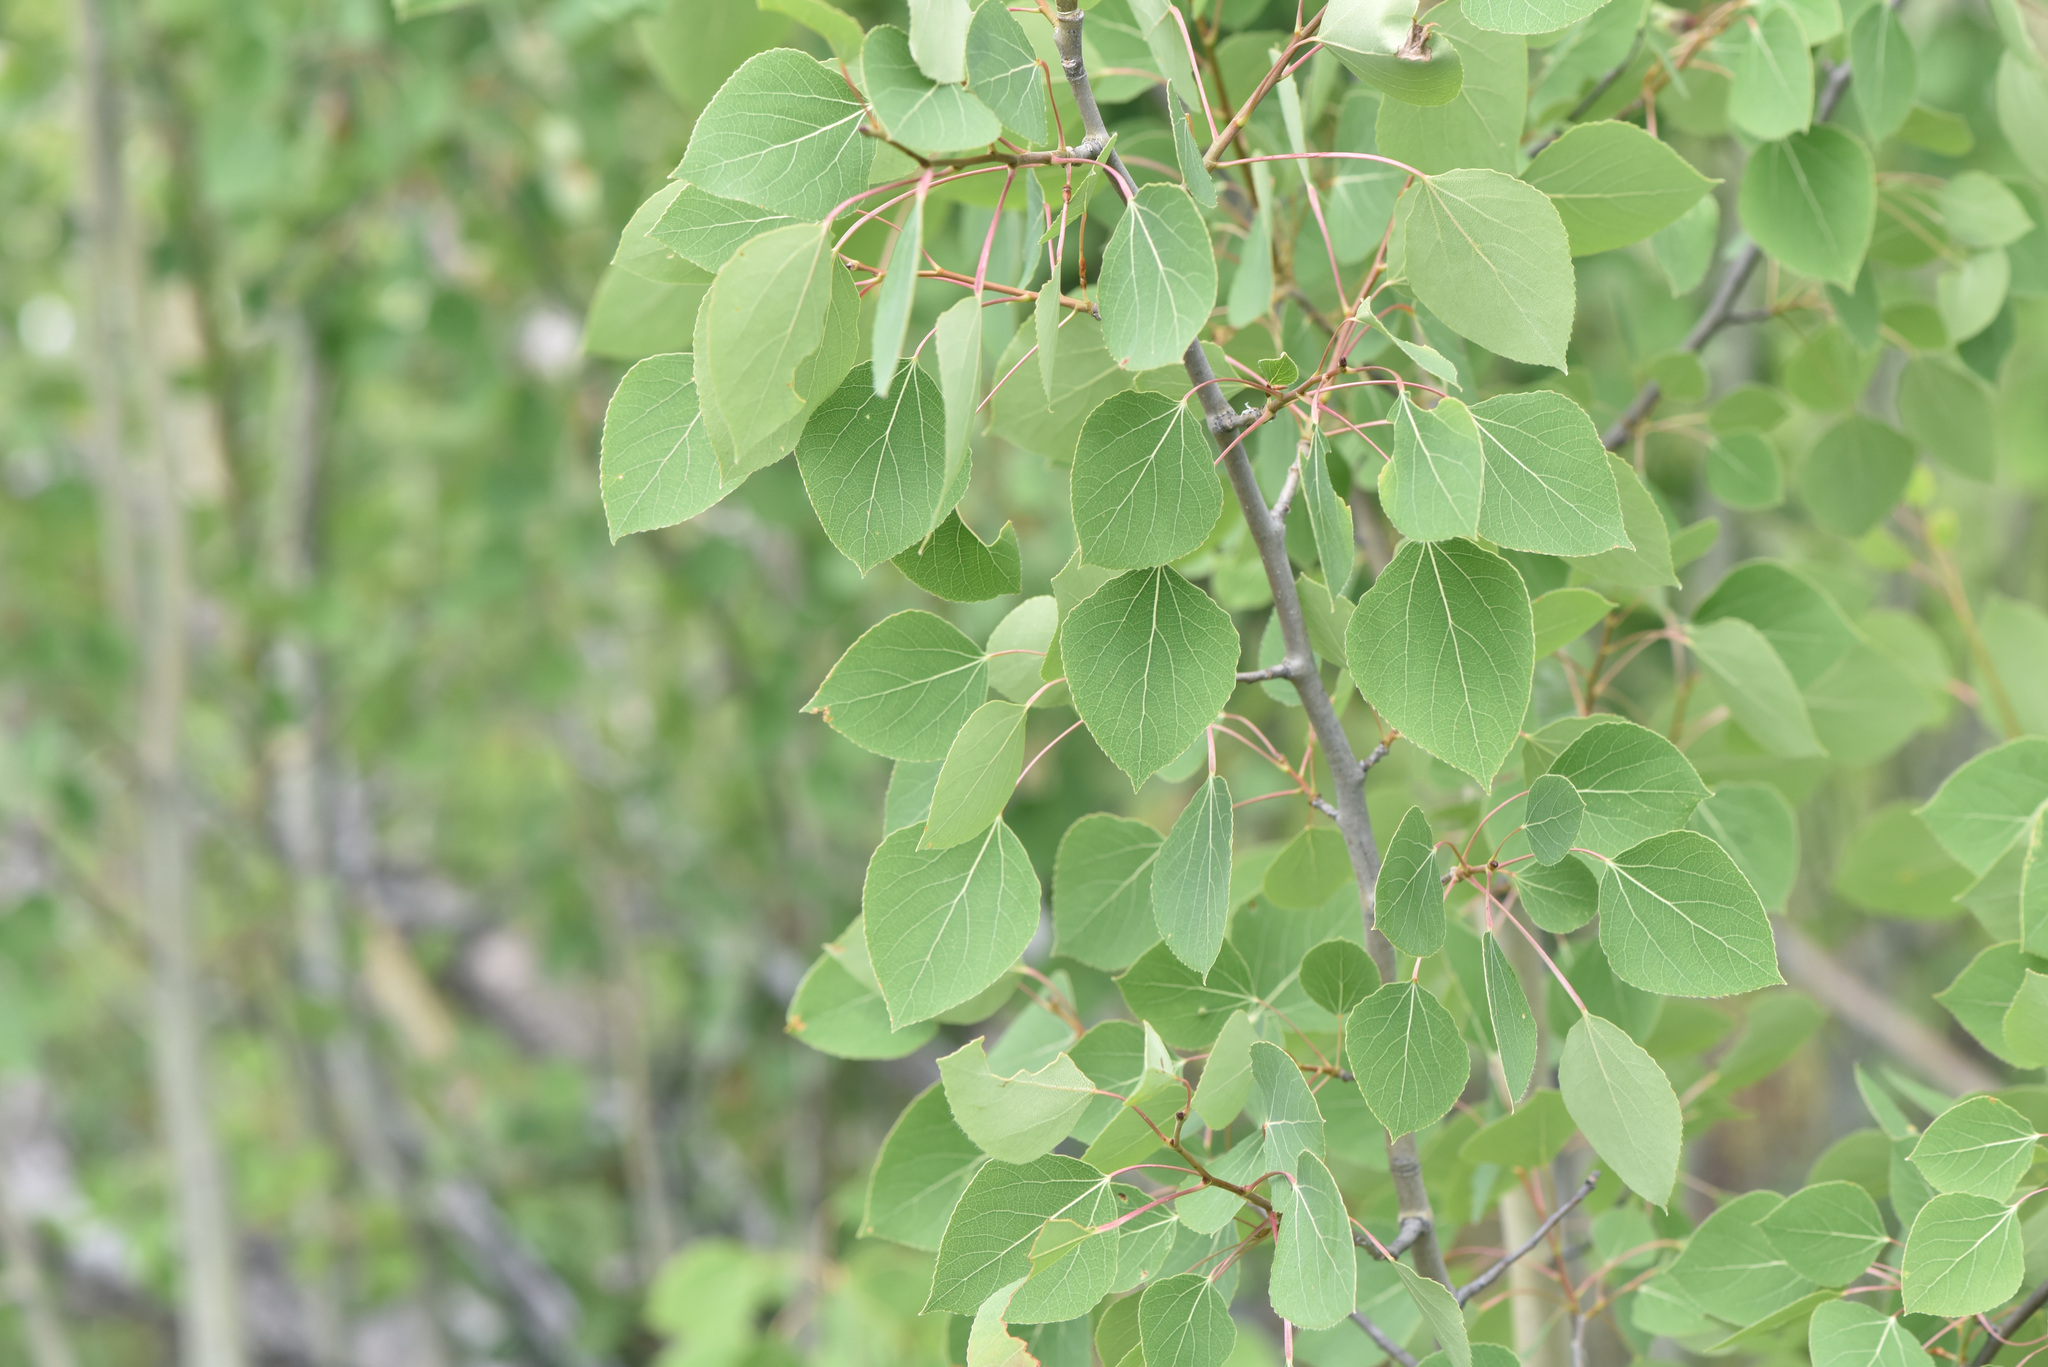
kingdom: Plantae
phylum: Tracheophyta
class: Magnoliopsida
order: Malpighiales
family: Salicaceae
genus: Populus
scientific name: Populus tremuloides
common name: Quaking aspen
